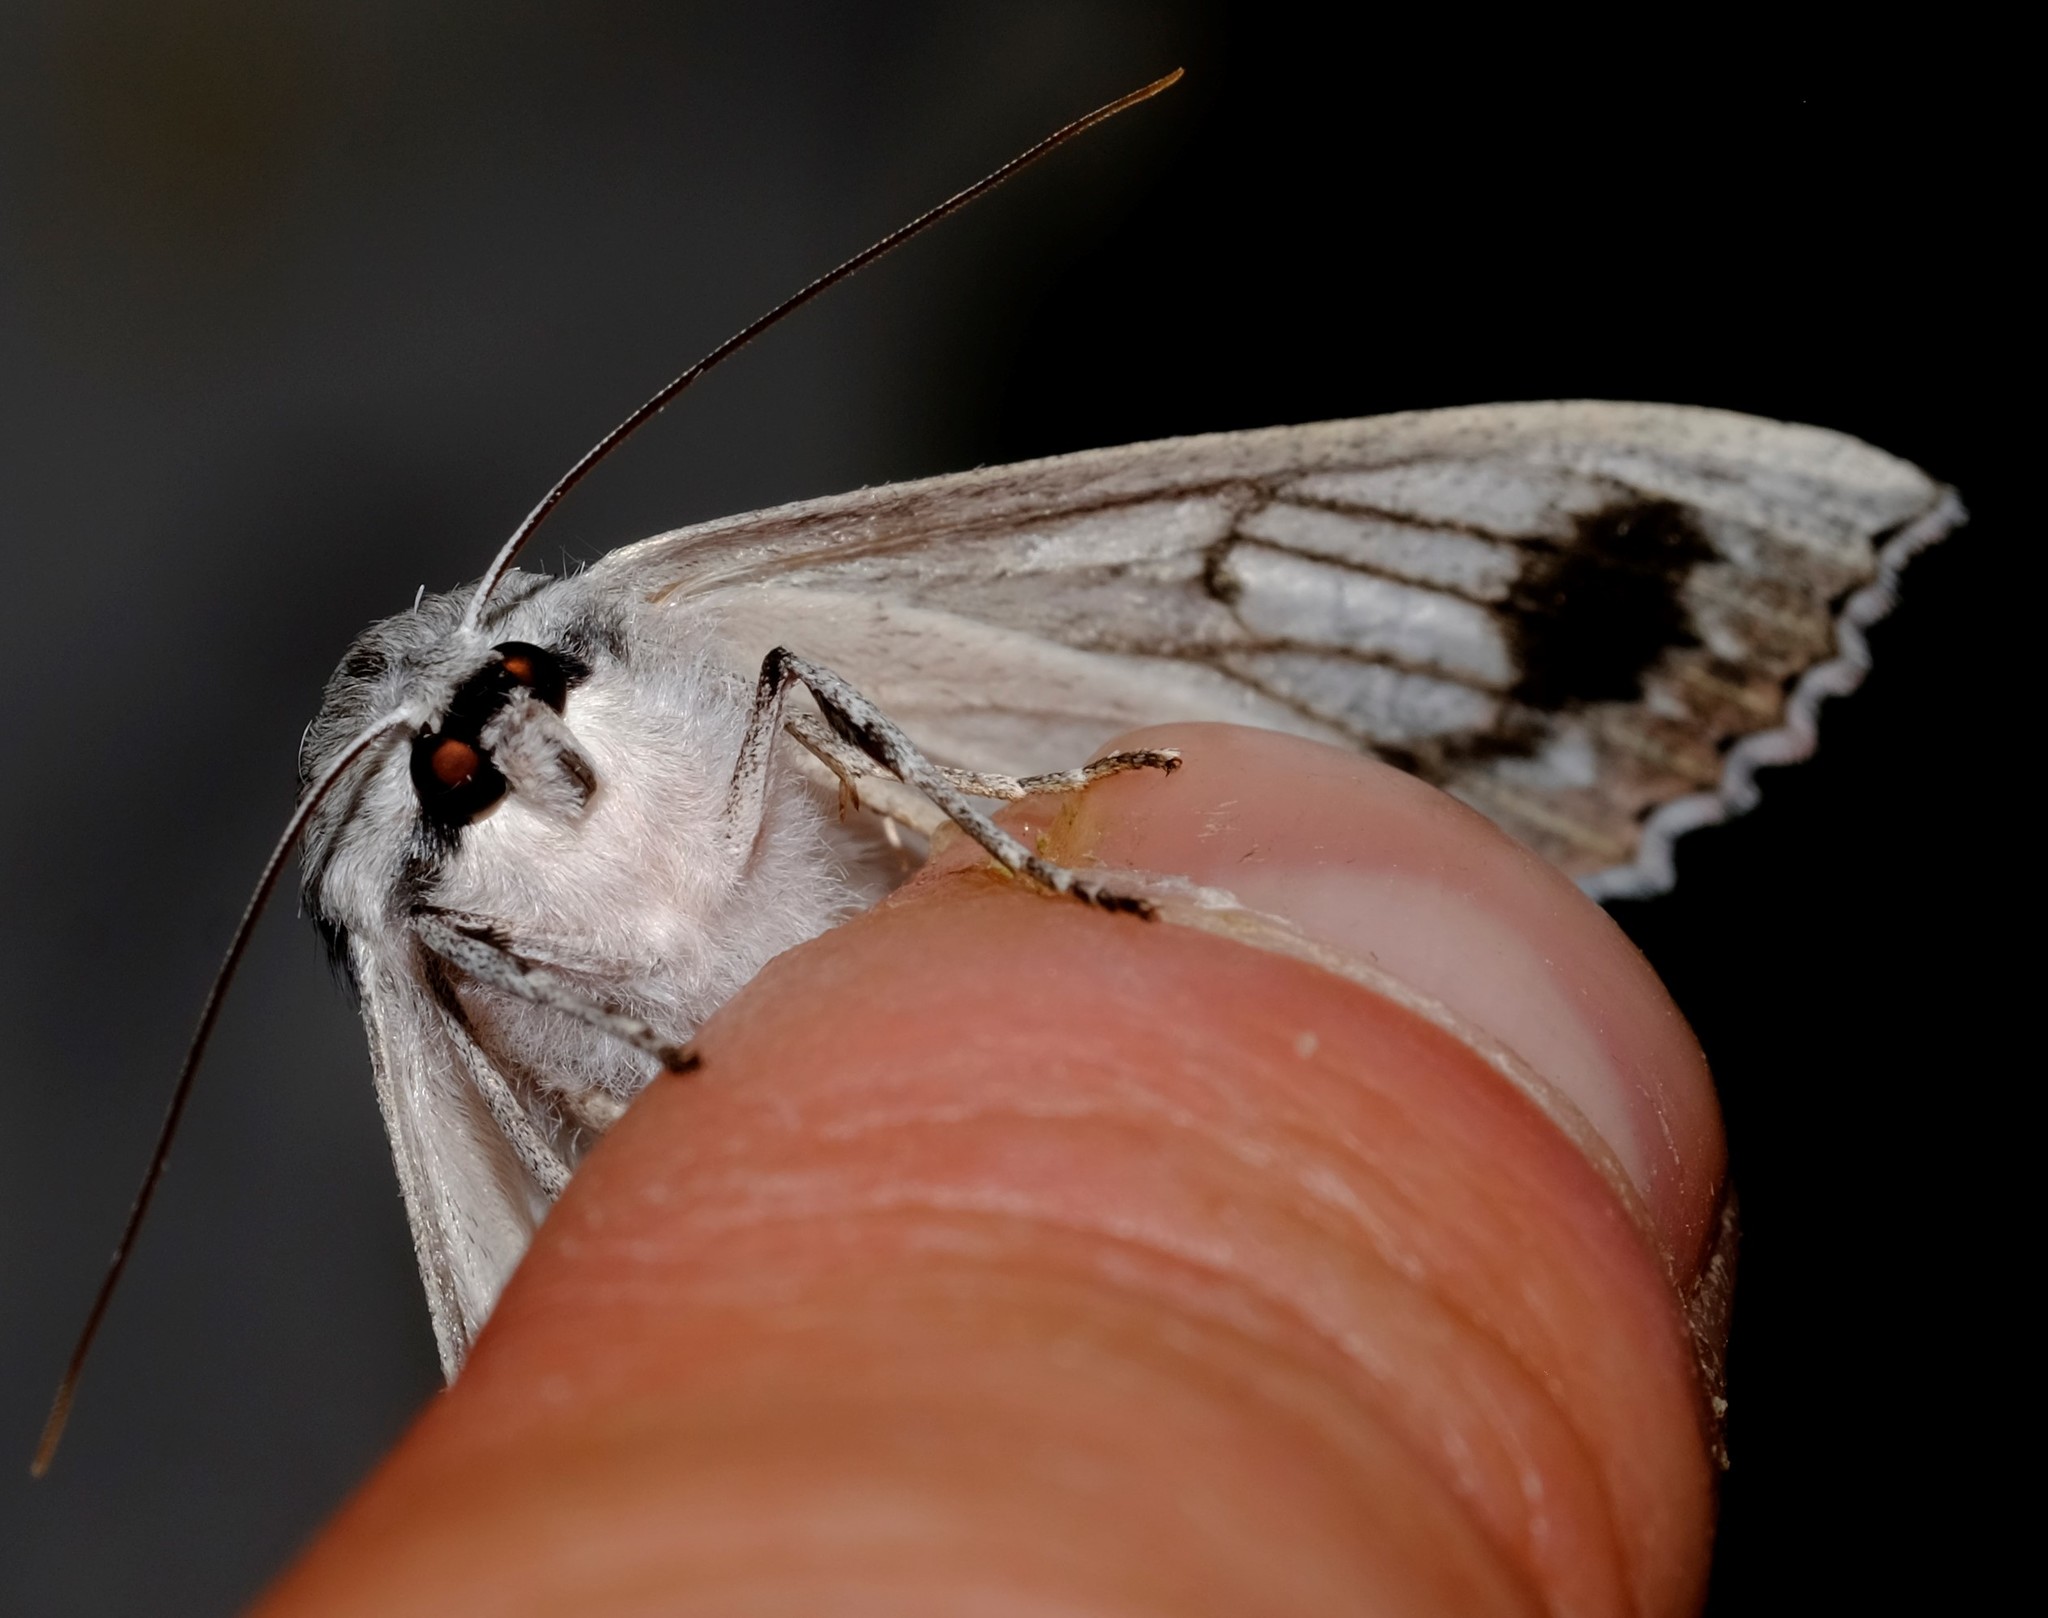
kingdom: Animalia
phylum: Arthropoda
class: Insecta
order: Lepidoptera
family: Geometridae
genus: Paraterpna
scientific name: Paraterpna
